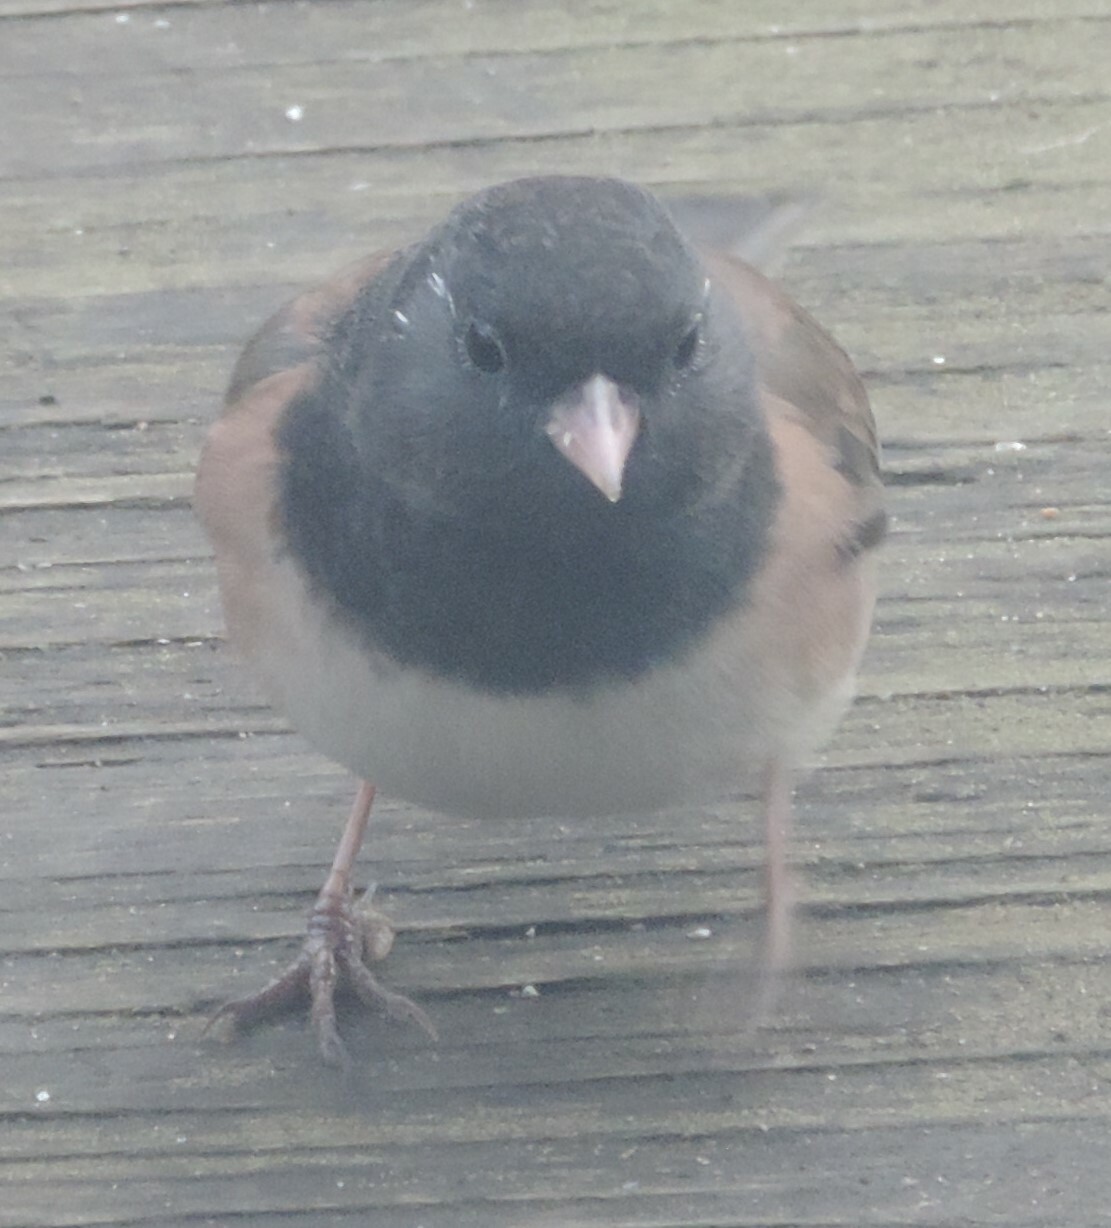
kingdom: Animalia
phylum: Chordata
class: Aves
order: Passeriformes
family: Passerellidae
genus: Junco
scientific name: Junco hyemalis
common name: Dark-eyed junco
